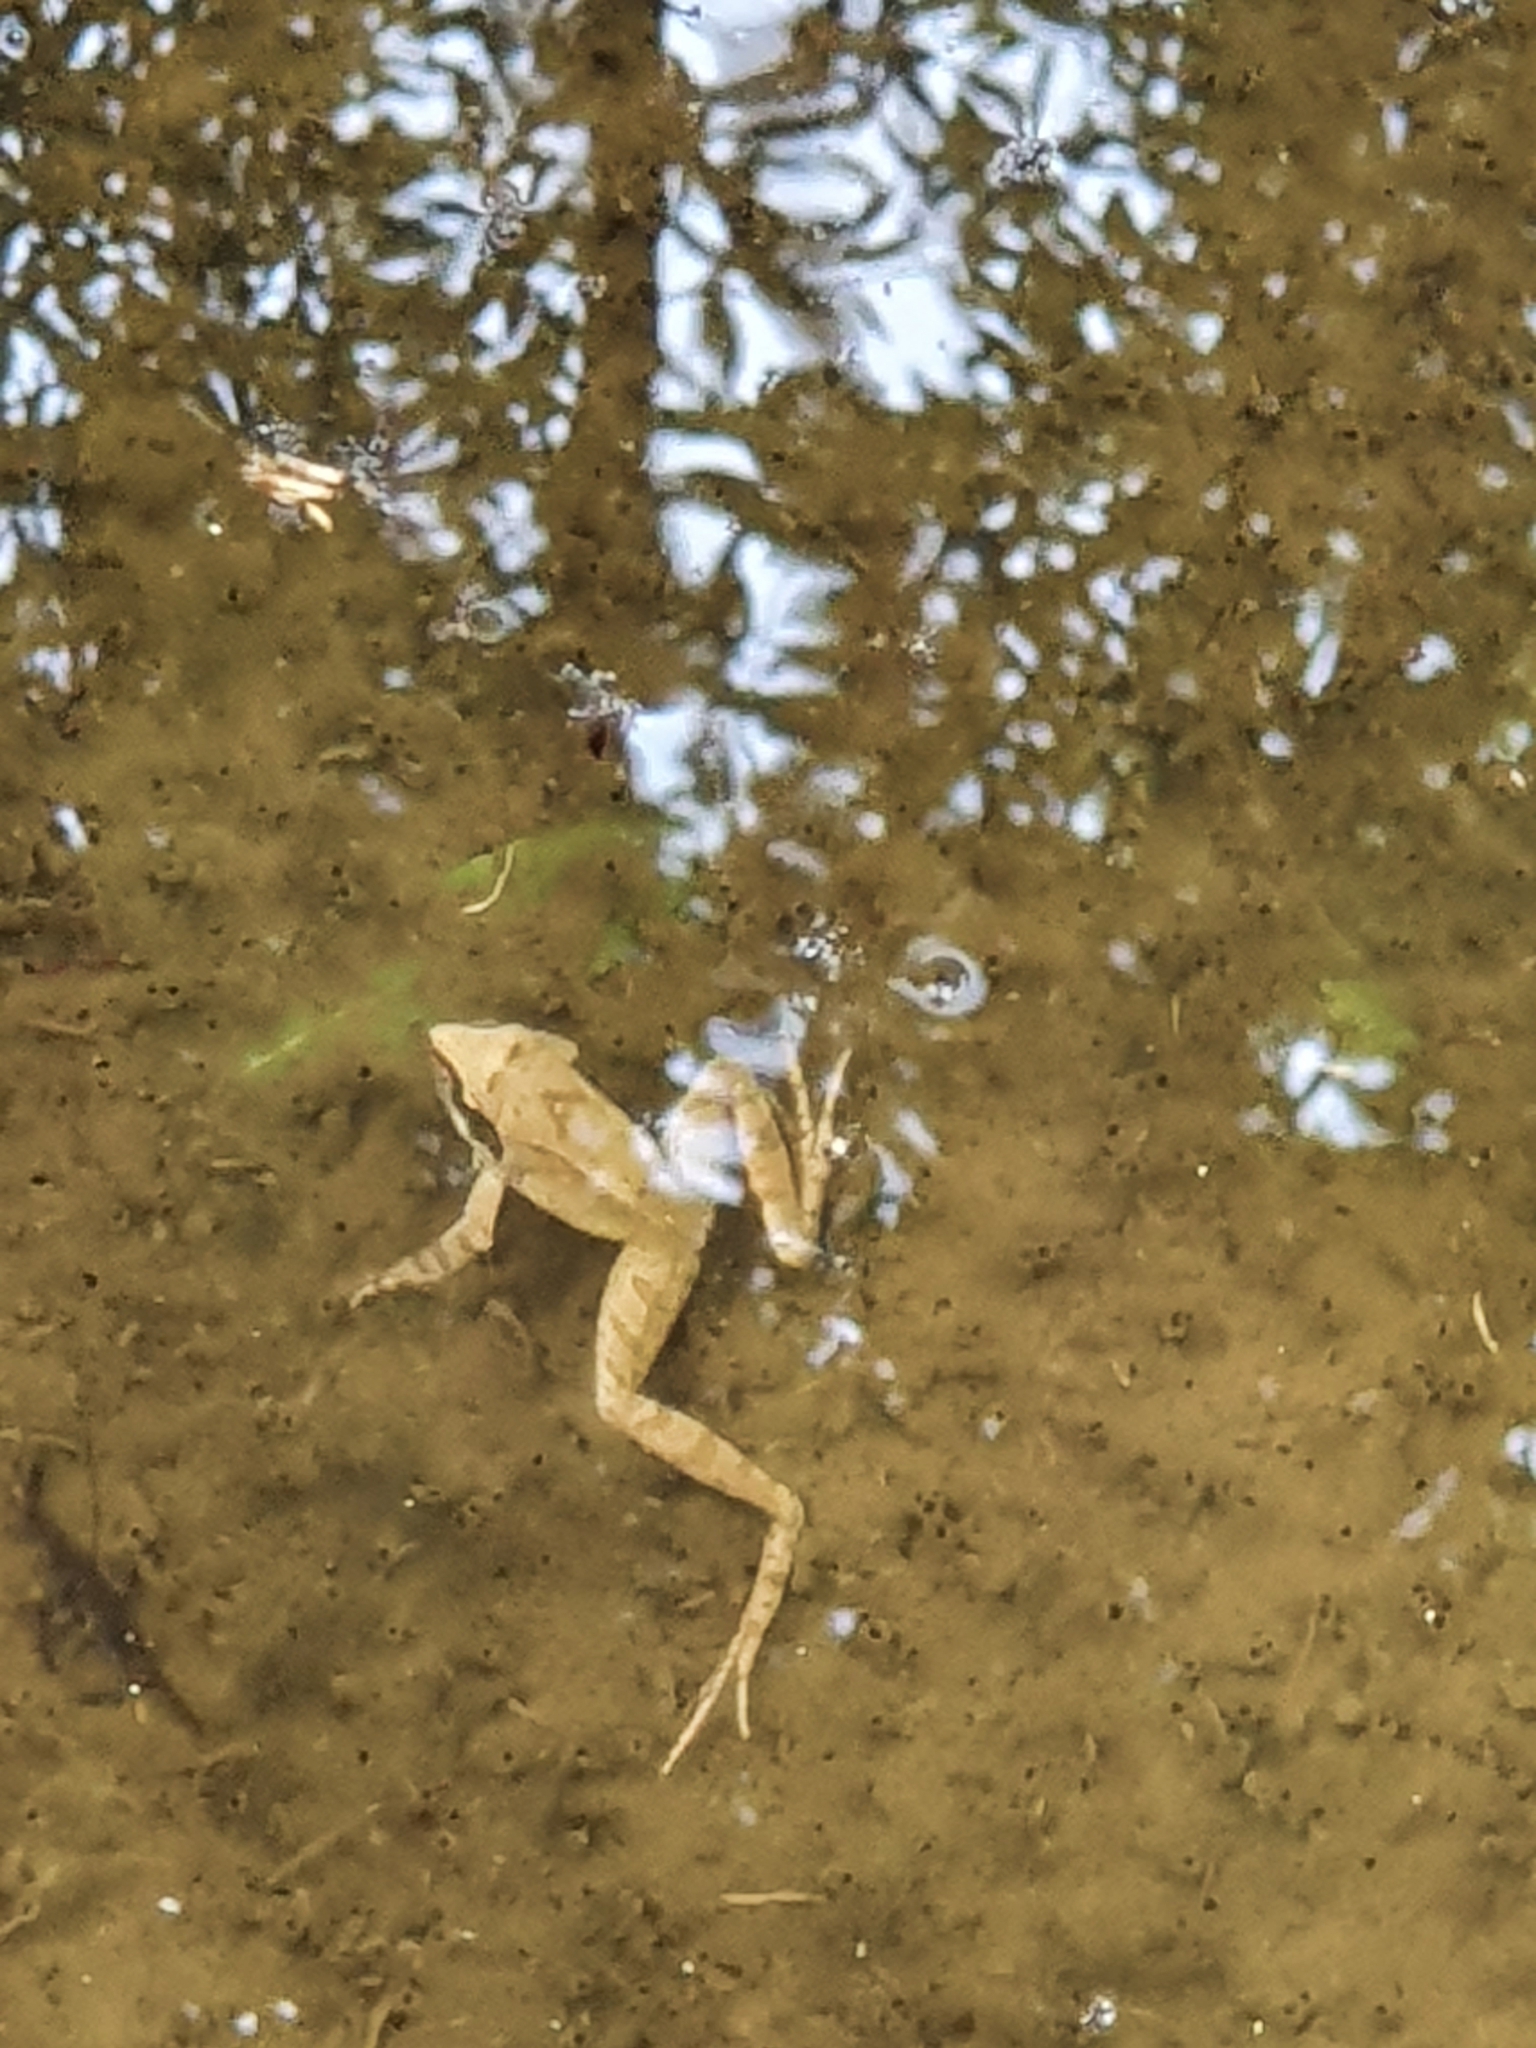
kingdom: Animalia
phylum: Chordata
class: Amphibia
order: Anura
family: Ranidae
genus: Rana
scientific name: Rana italica
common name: Italian stream frog
